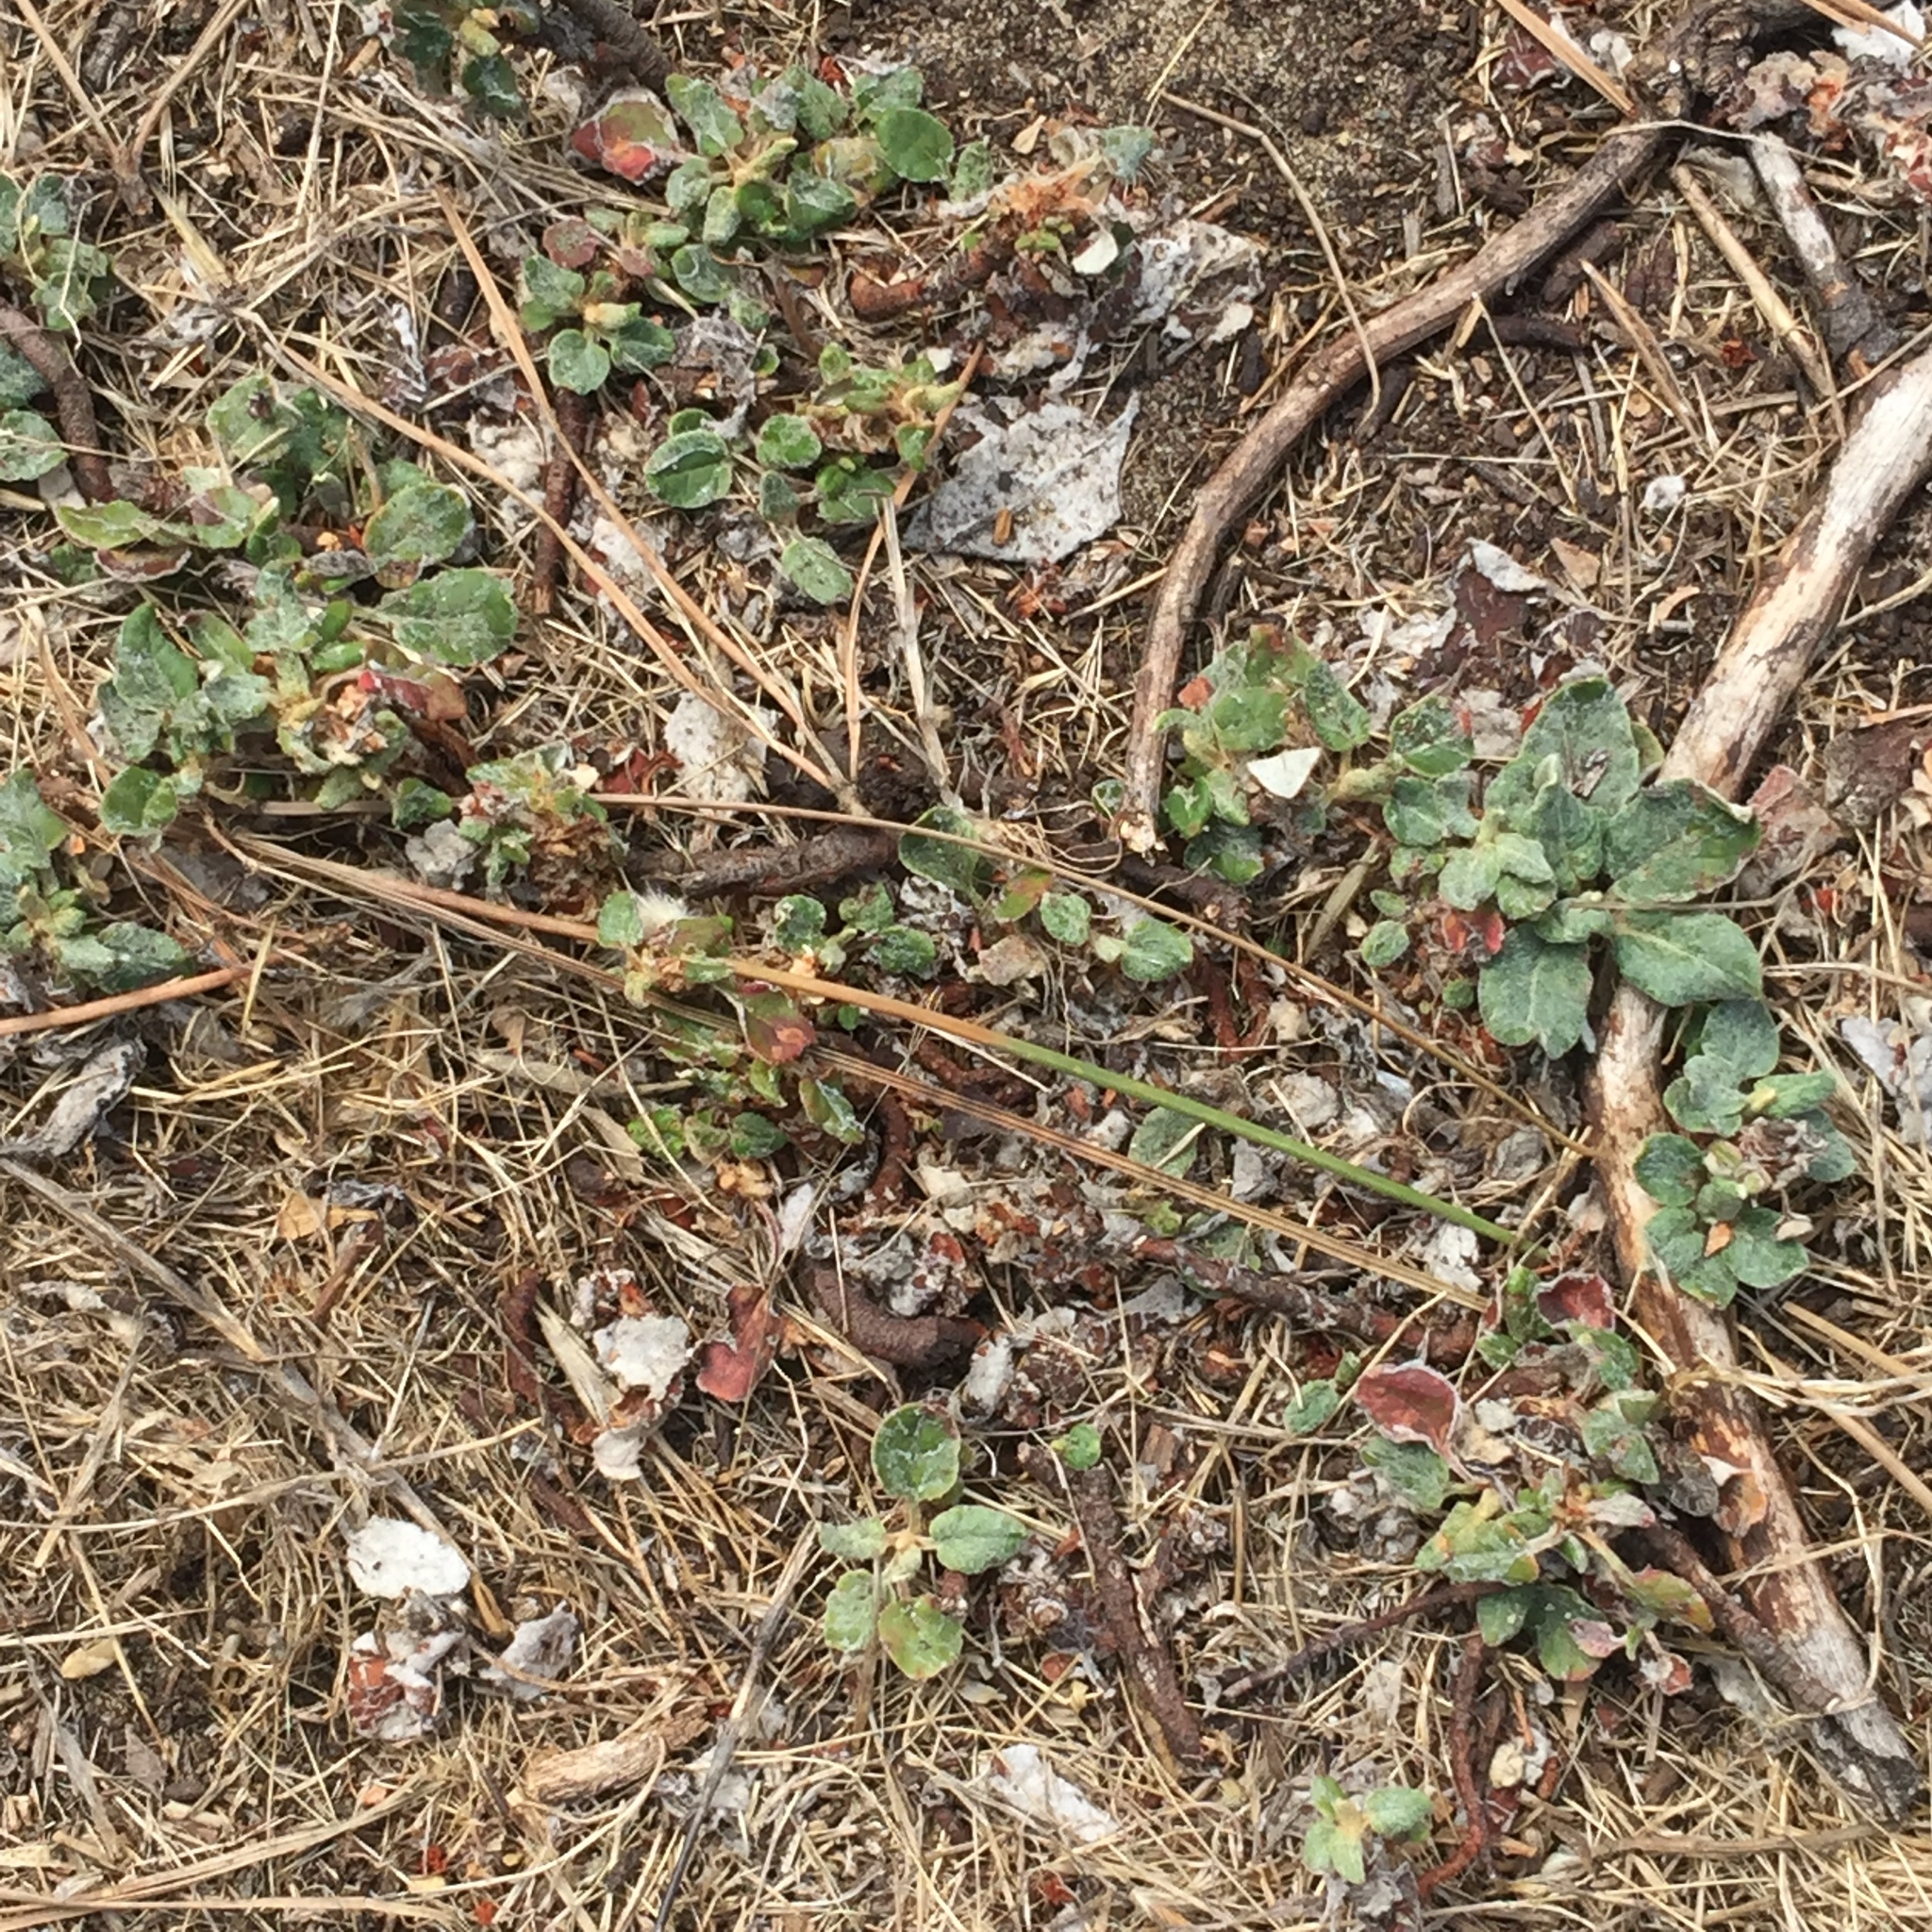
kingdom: Plantae
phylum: Tracheophyta
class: Magnoliopsida
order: Caryophyllales
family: Polygonaceae
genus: Eriogonum
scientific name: Eriogonum latifolium
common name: Seaside wild buckwheat
